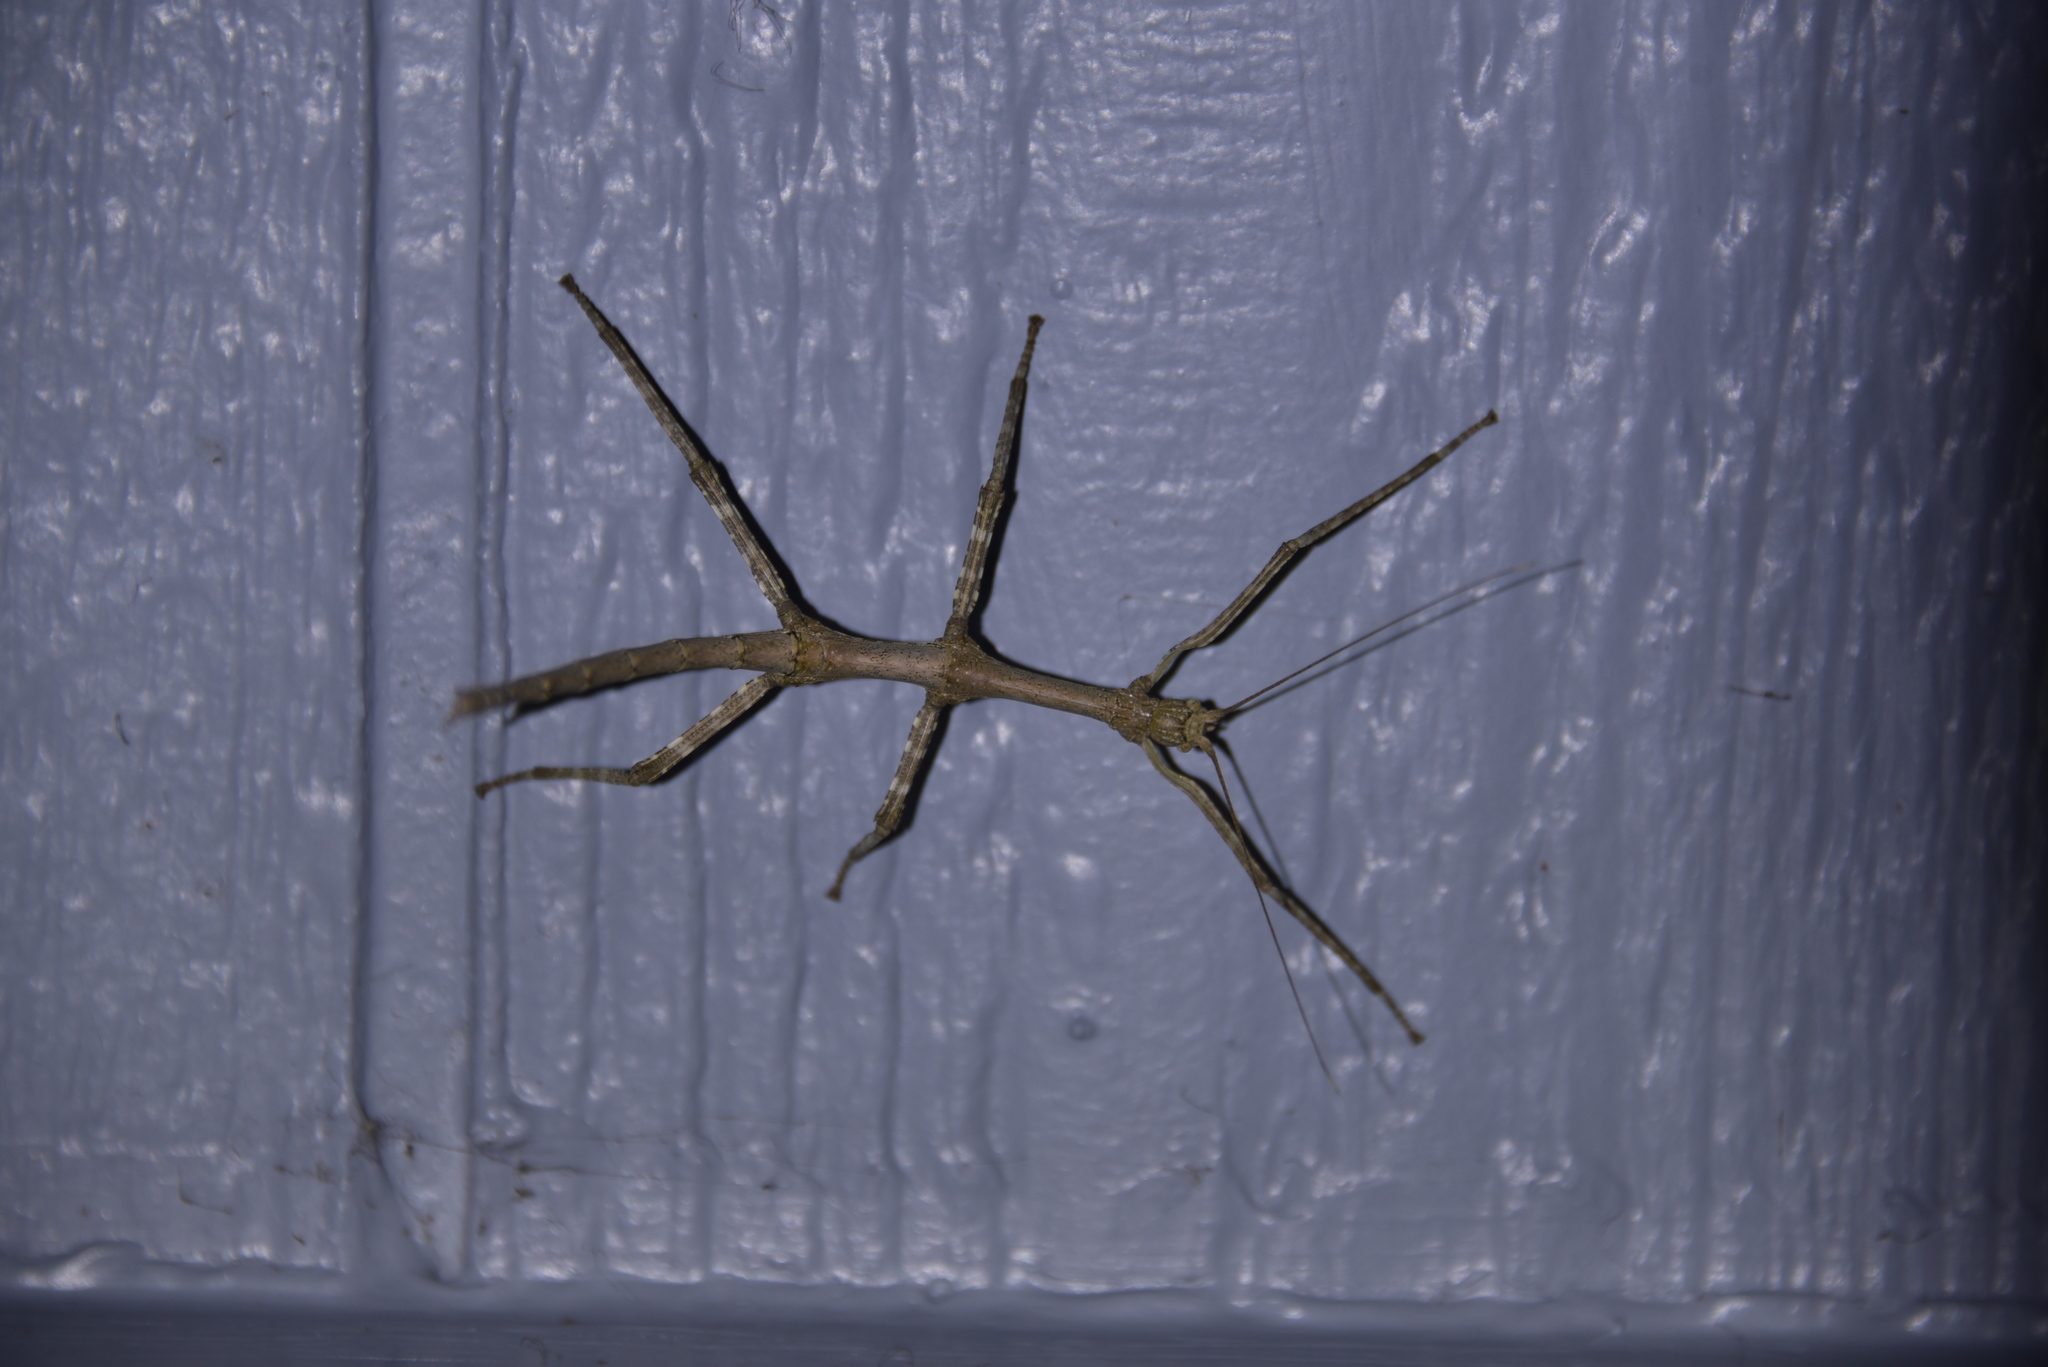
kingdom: Animalia
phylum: Arthropoda
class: Insecta
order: Phasmida
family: Diapheromeridae
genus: Megaphasma
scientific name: Megaphasma denticrus
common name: Giant walkingstick
